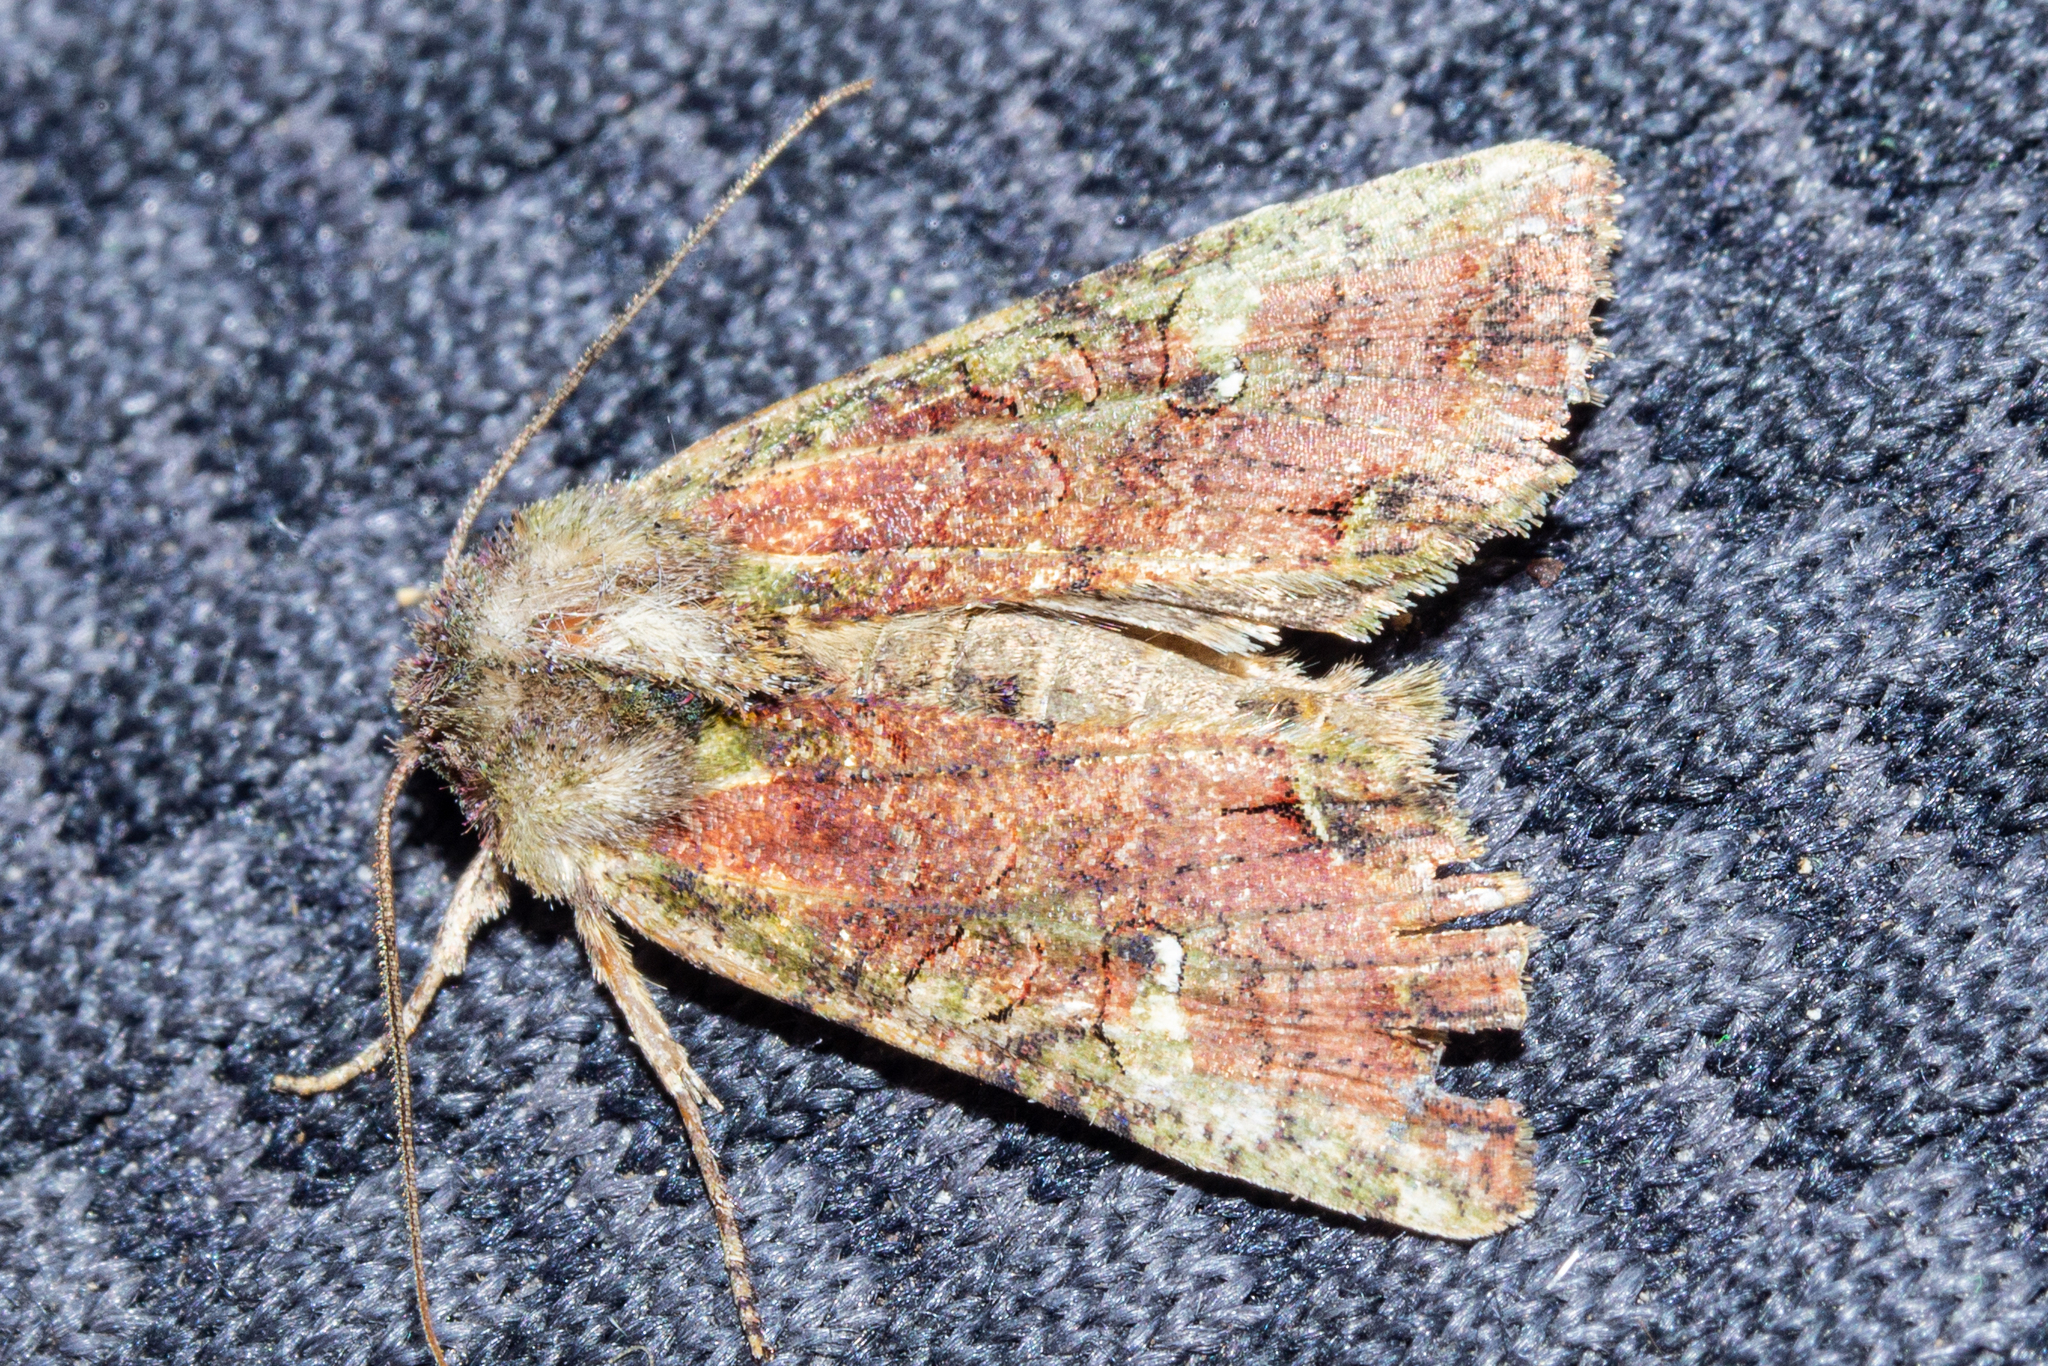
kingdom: Animalia
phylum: Arthropoda
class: Insecta
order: Lepidoptera
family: Noctuidae
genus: Meterana
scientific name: Meterana levis
